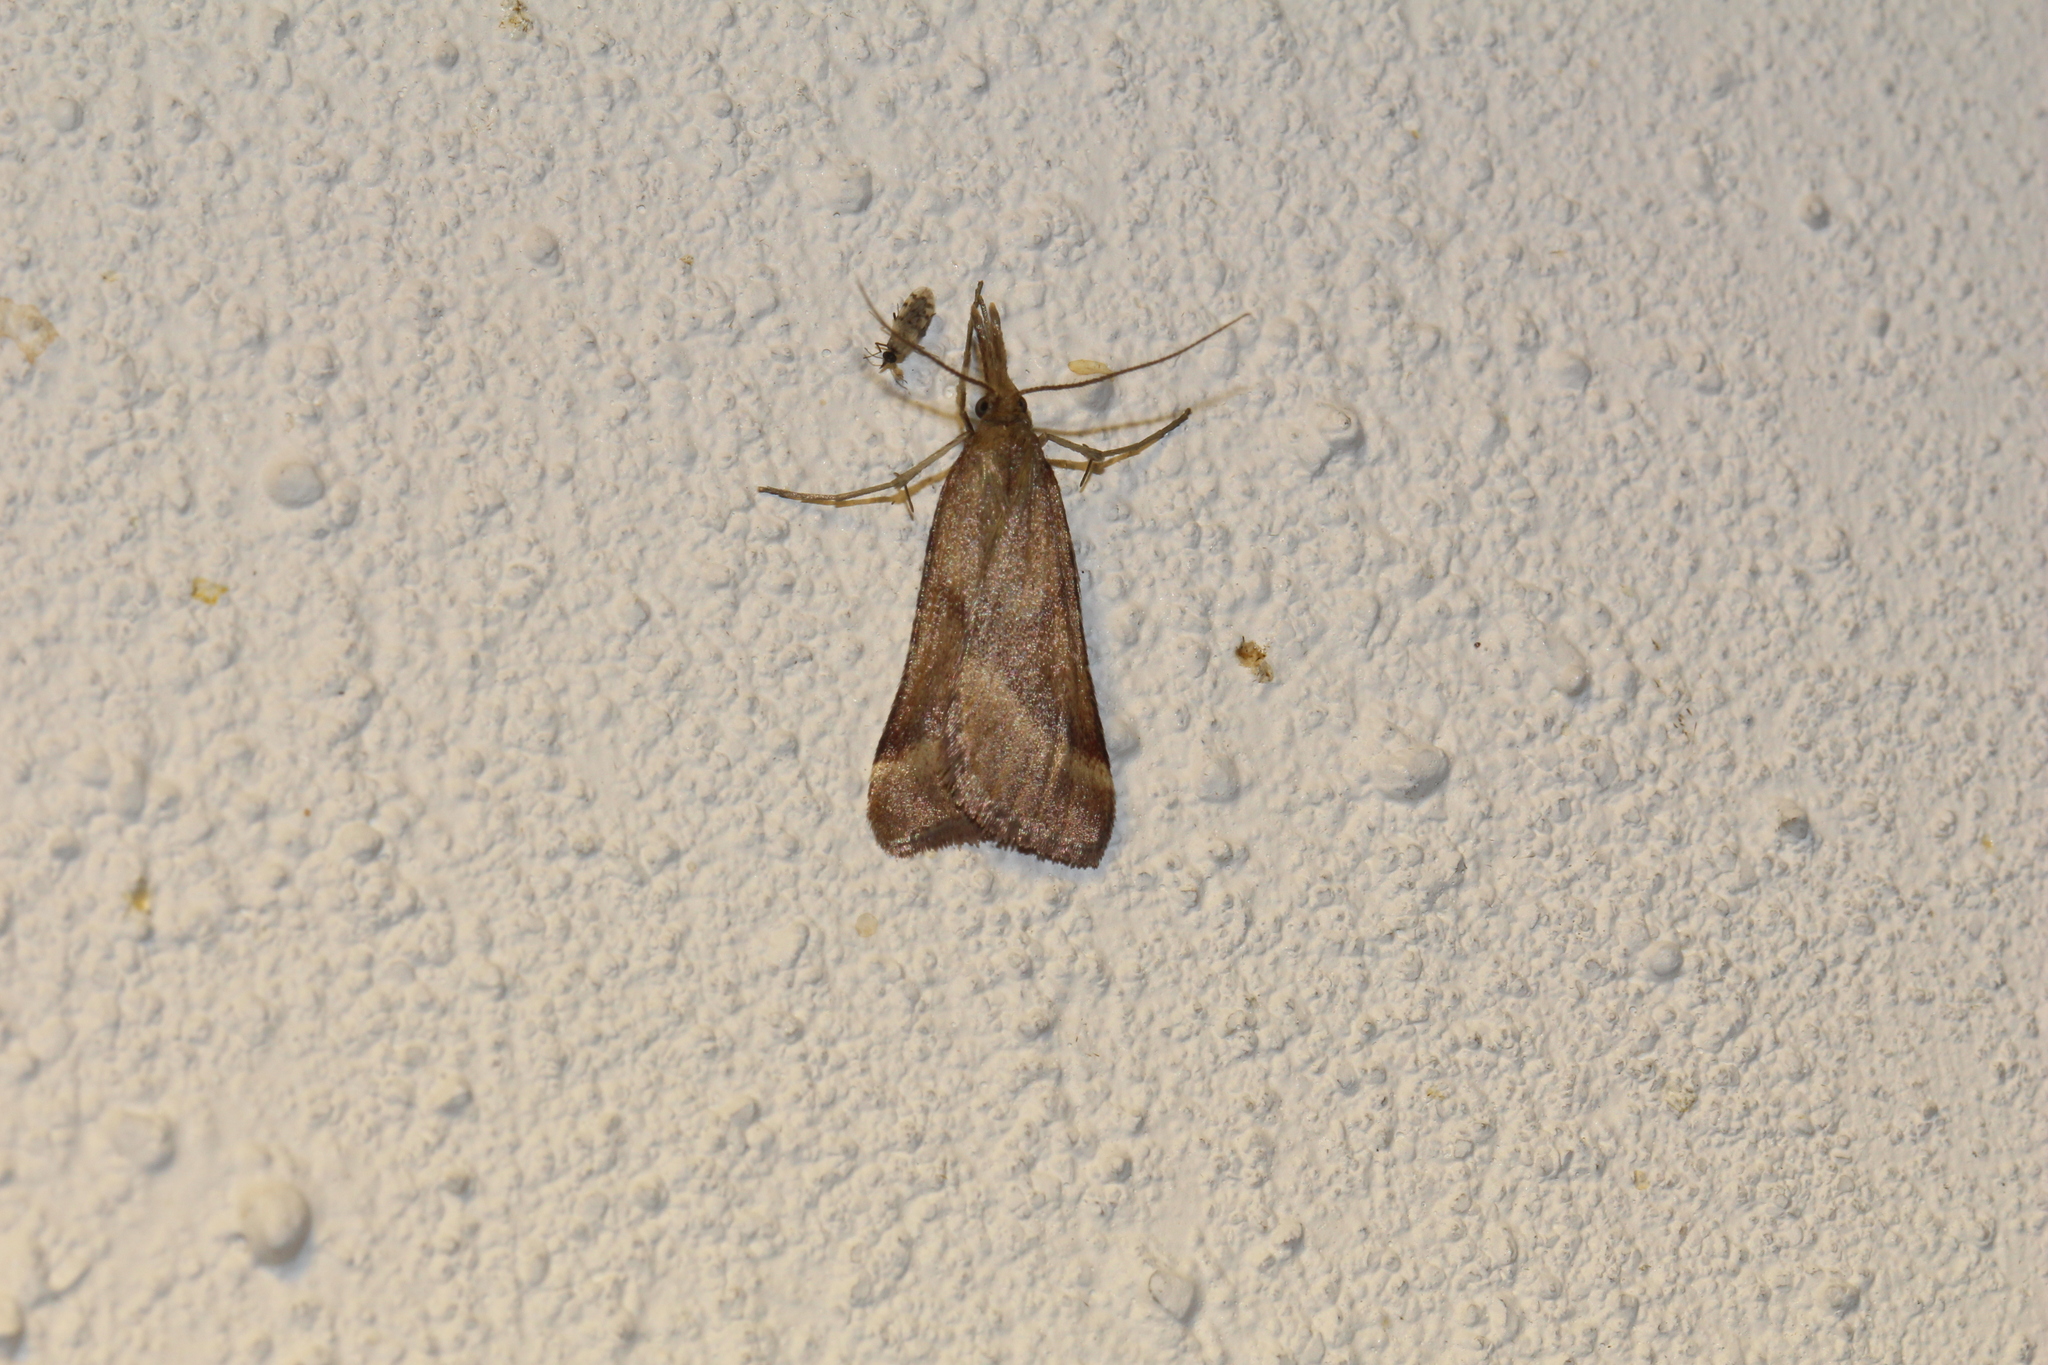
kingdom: Animalia
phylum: Arthropoda
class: Insecta
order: Lepidoptera
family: Pyralidae
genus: Synaphe
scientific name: Synaphe punctalis
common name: Long-legged tabby
